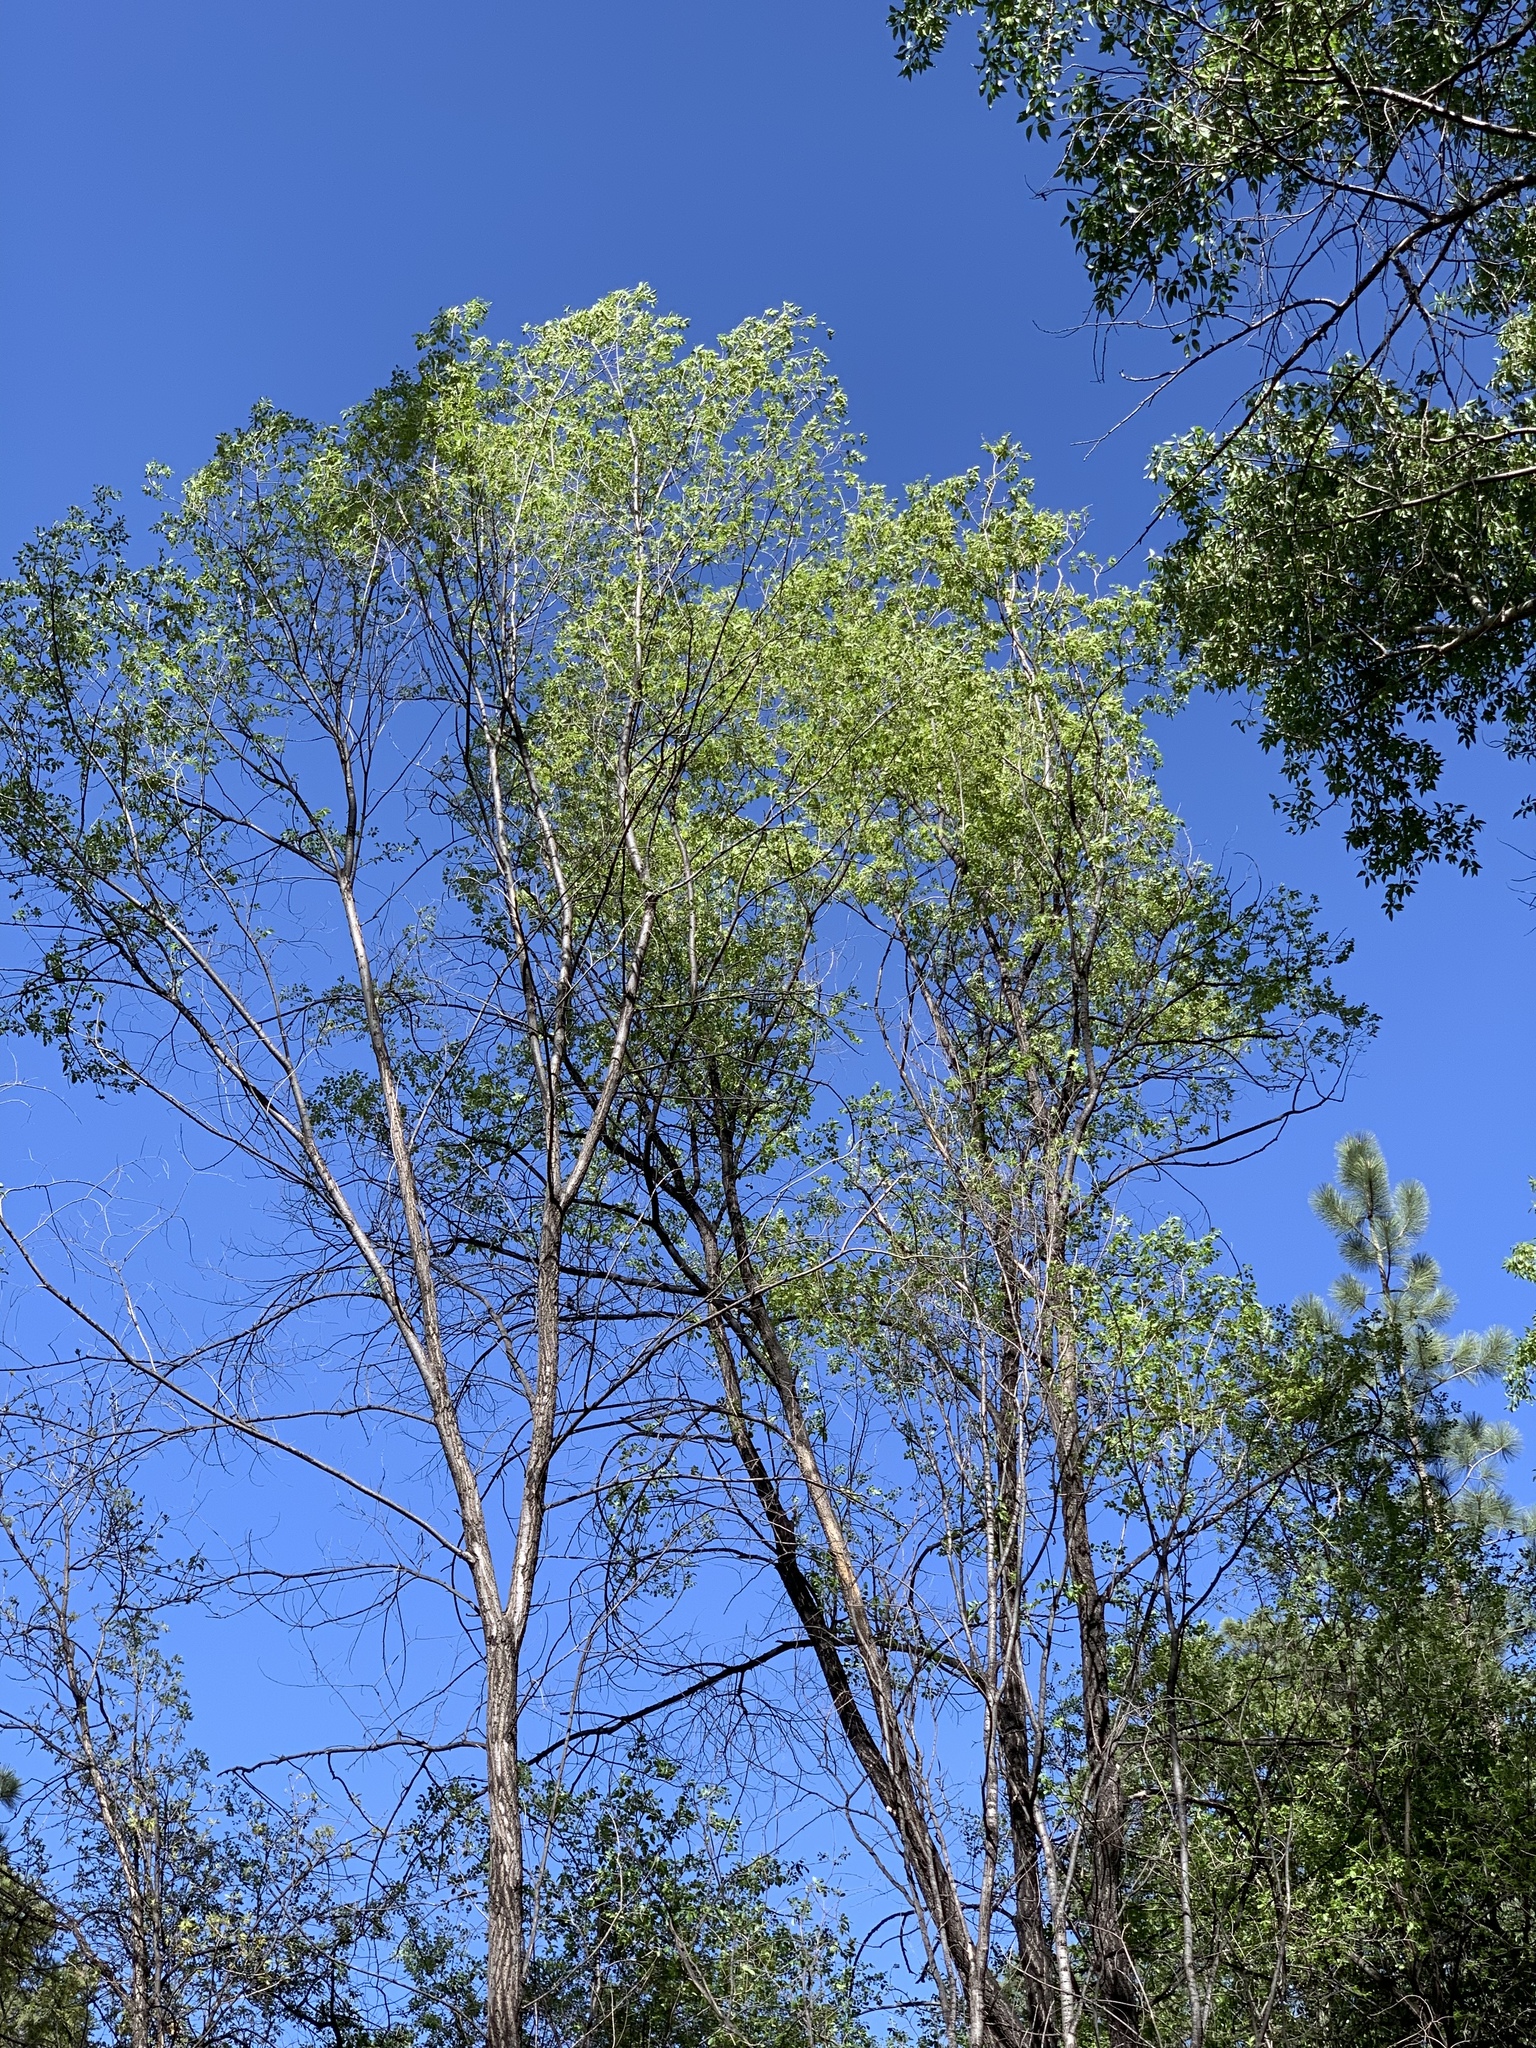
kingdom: Plantae
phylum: Tracheophyta
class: Magnoliopsida
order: Malpighiales
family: Salicaceae
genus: Populus
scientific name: Populus fremontii
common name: Fremont's cottonwood
